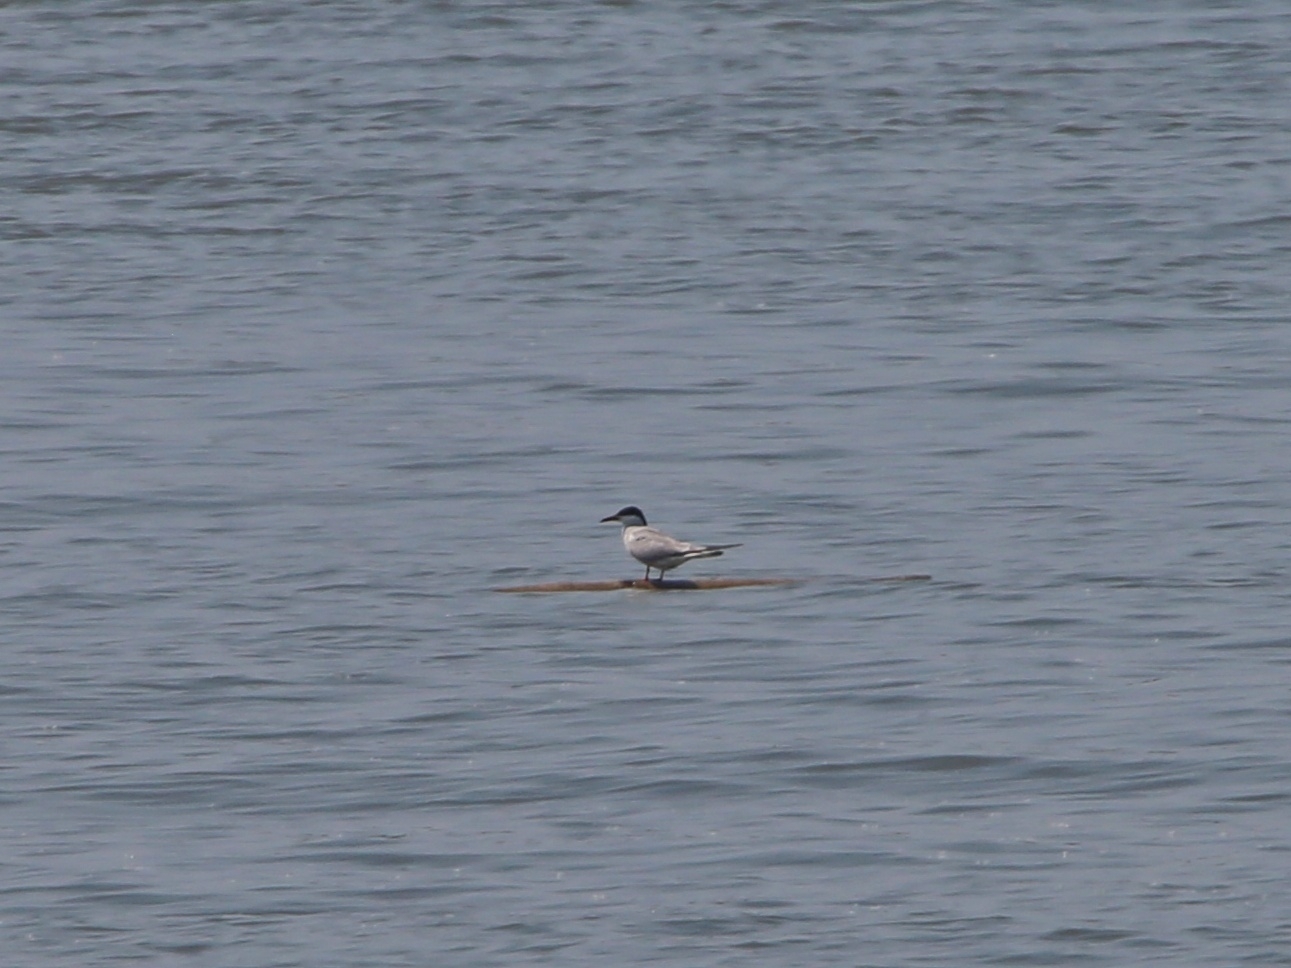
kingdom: Animalia
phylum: Chordata
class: Aves
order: Charadriiformes
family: Laridae
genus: Sterna
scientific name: Sterna hirundo
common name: Common tern
